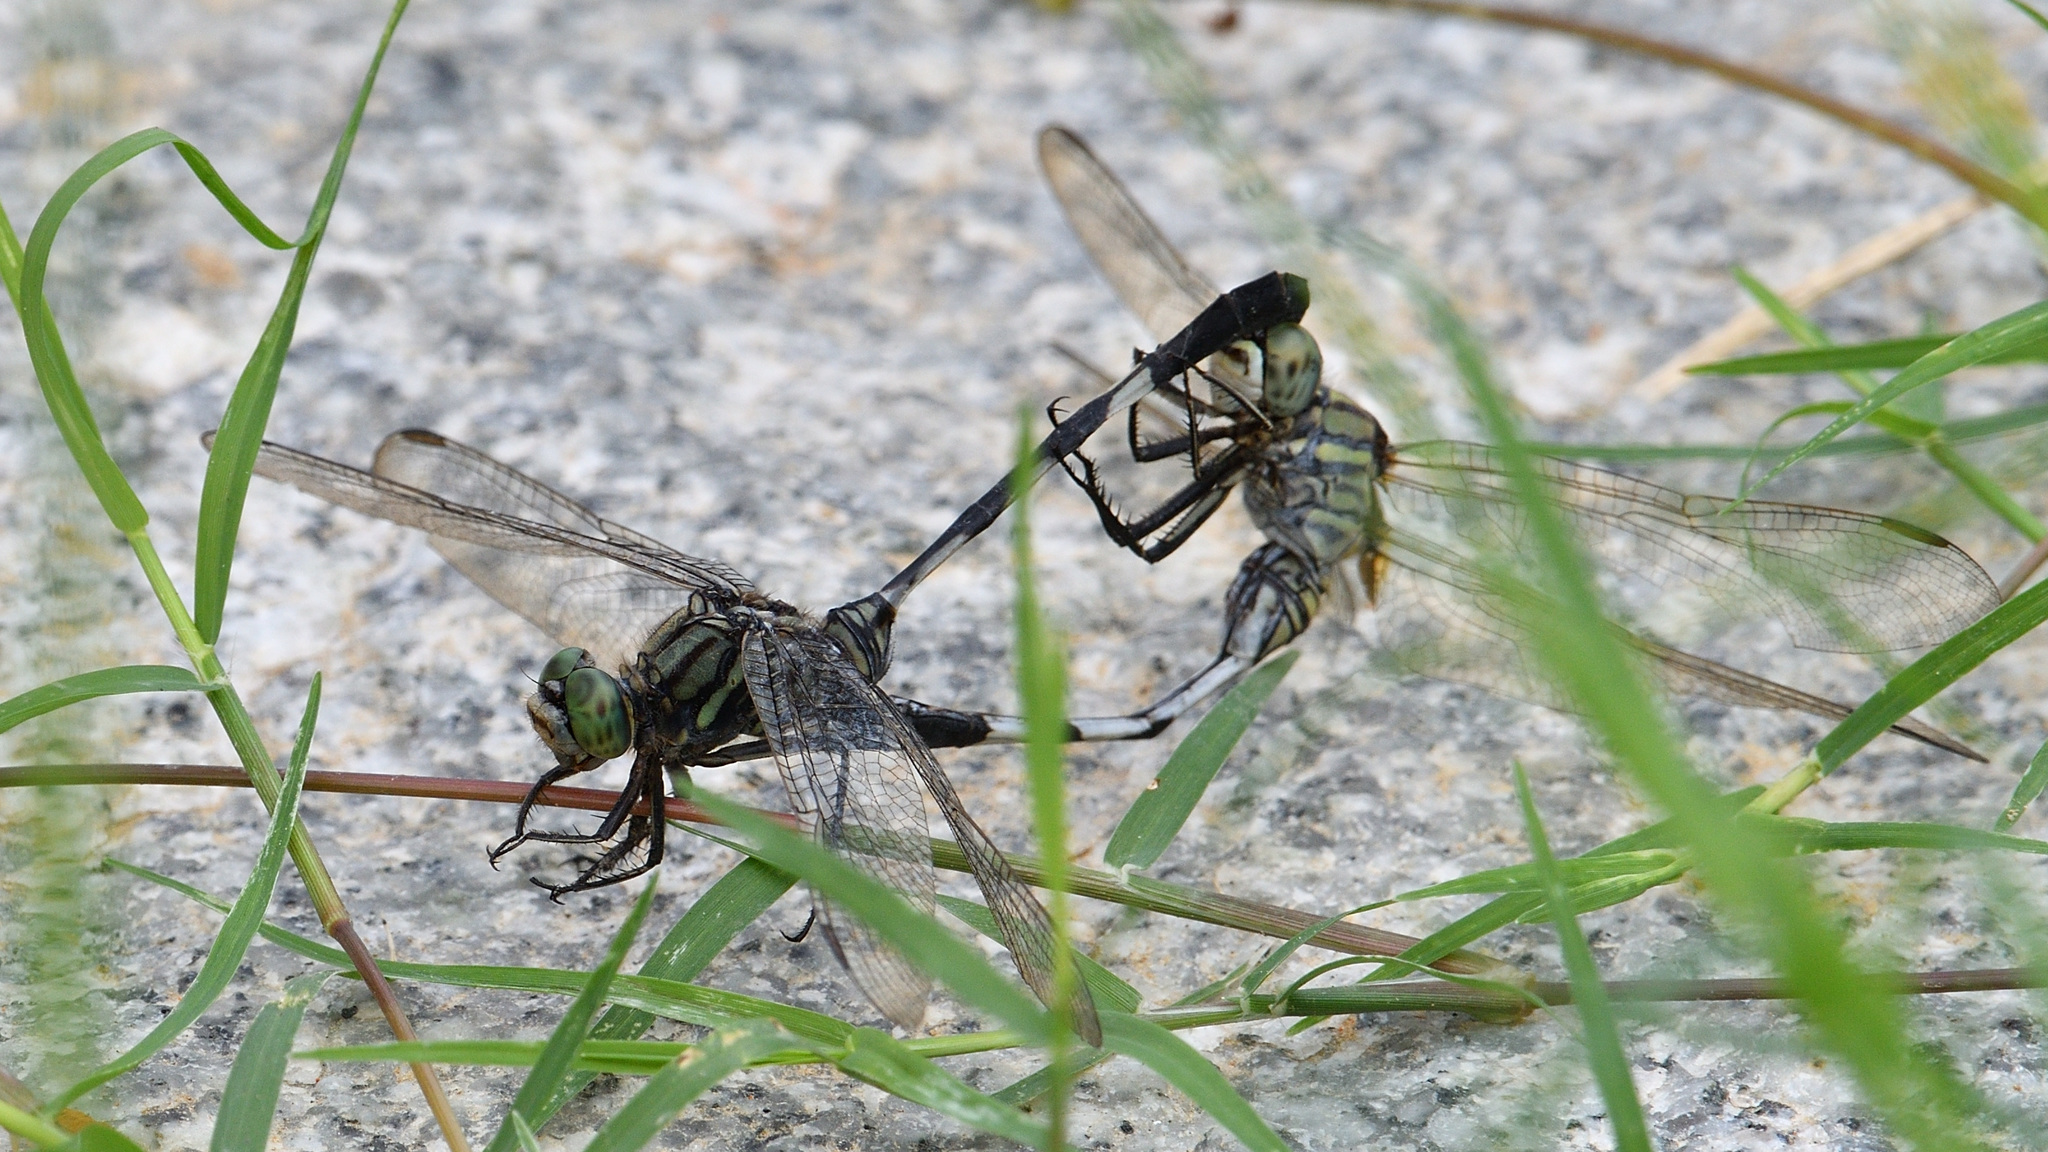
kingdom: Animalia
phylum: Arthropoda
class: Insecta
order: Odonata
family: Libellulidae
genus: Orthetrum
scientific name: Orthetrum sabina
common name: Slender skimmer
